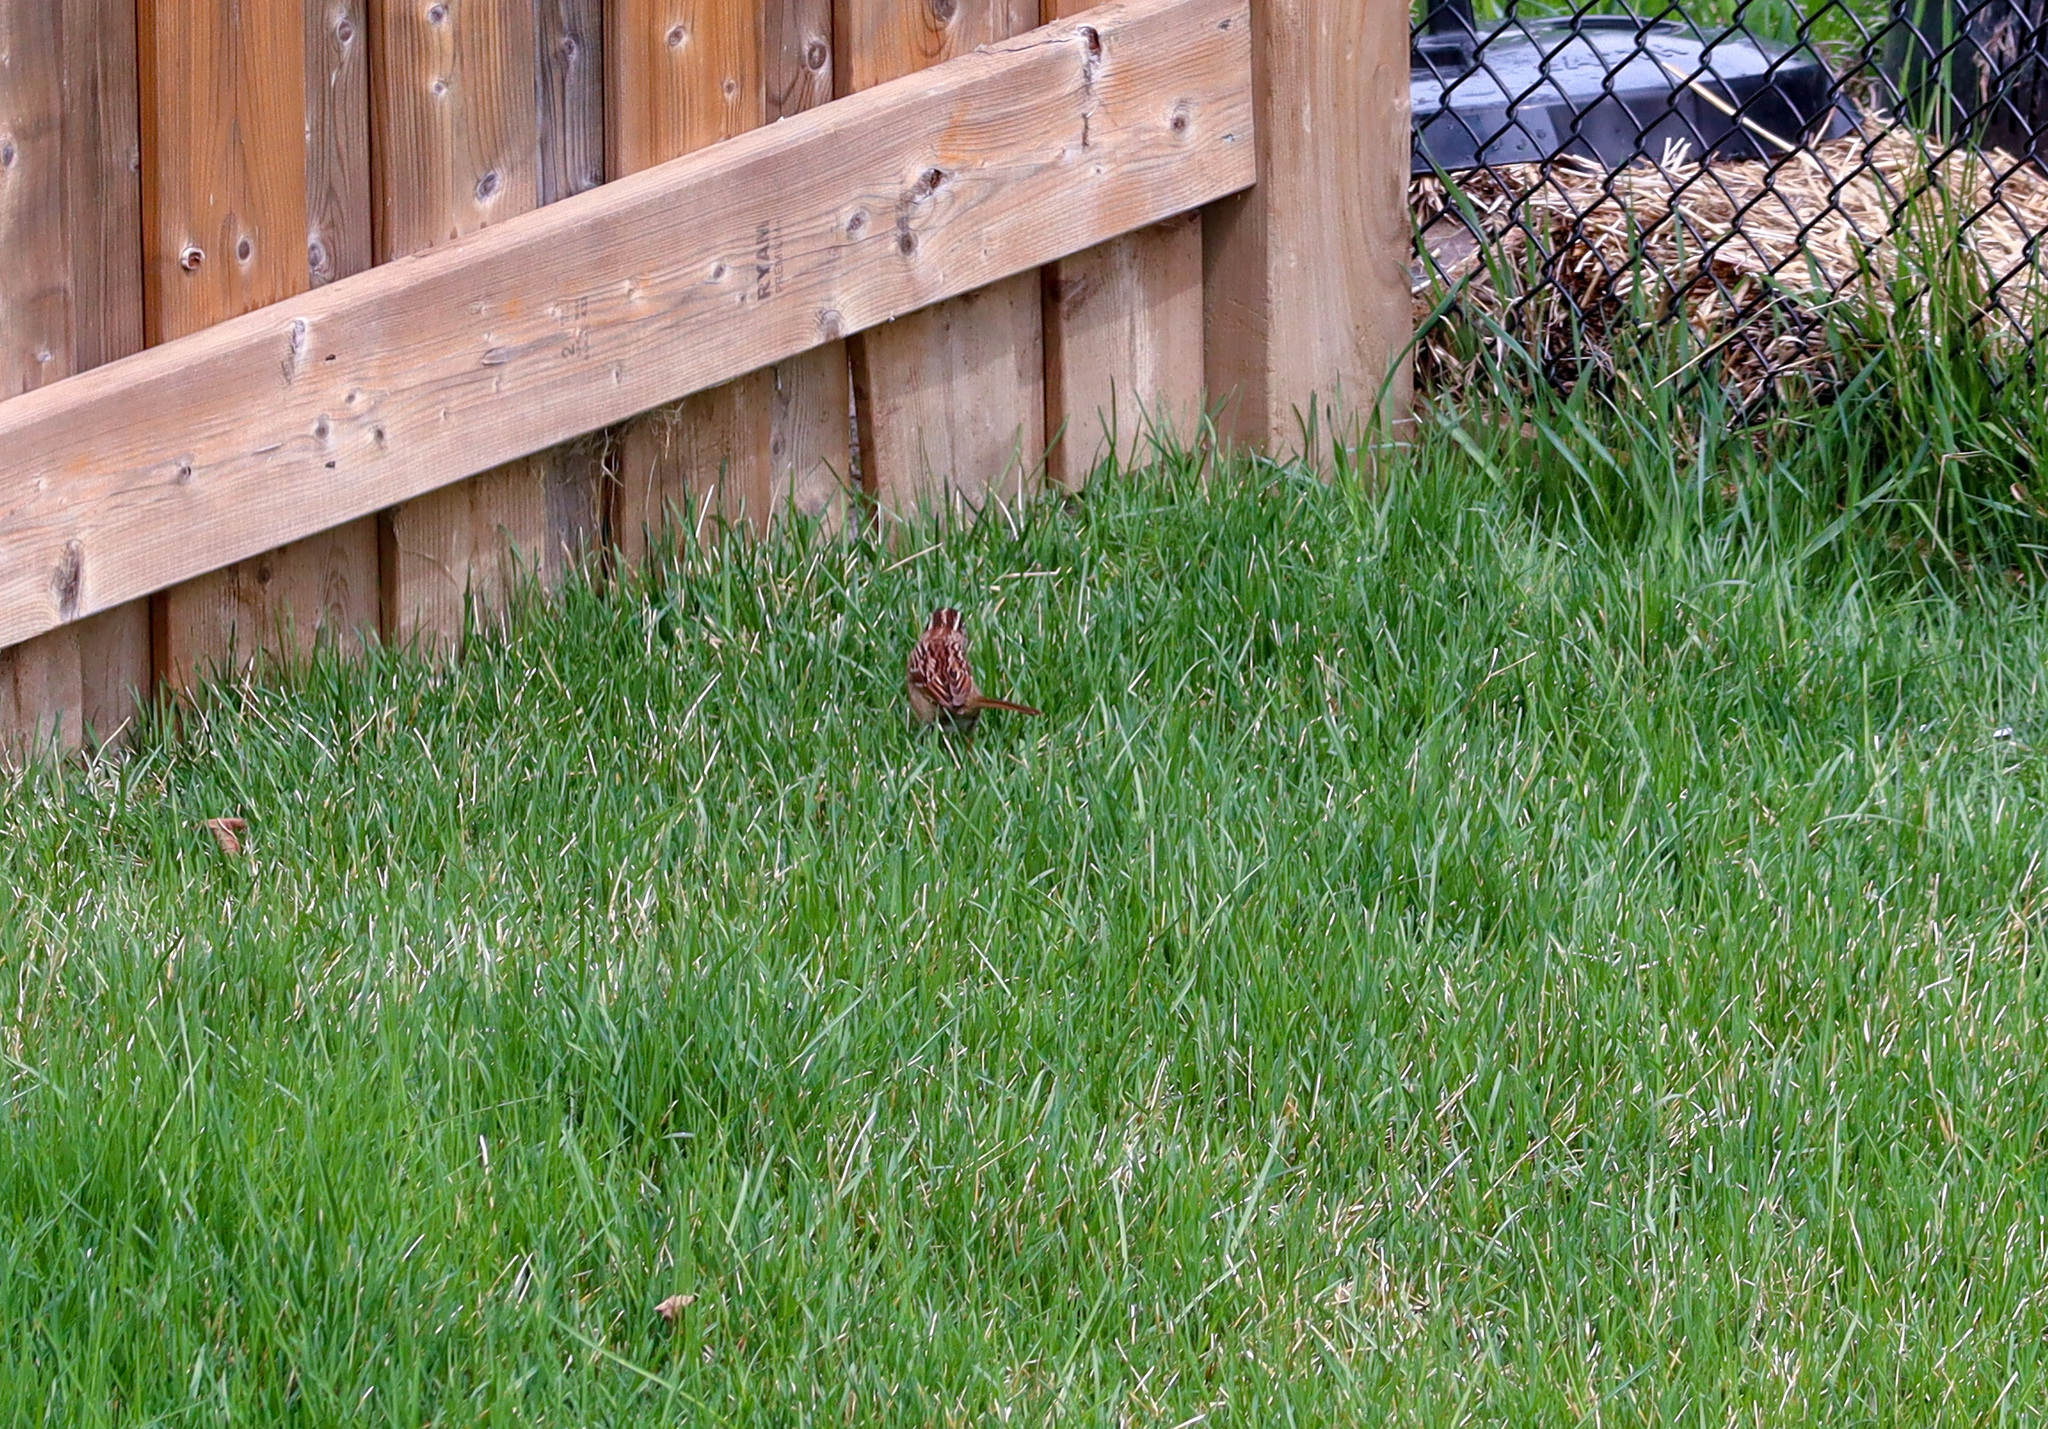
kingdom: Animalia
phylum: Chordata
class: Aves
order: Passeriformes
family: Passerellidae
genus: Zonotrichia
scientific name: Zonotrichia albicollis
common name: White-throated sparrow
